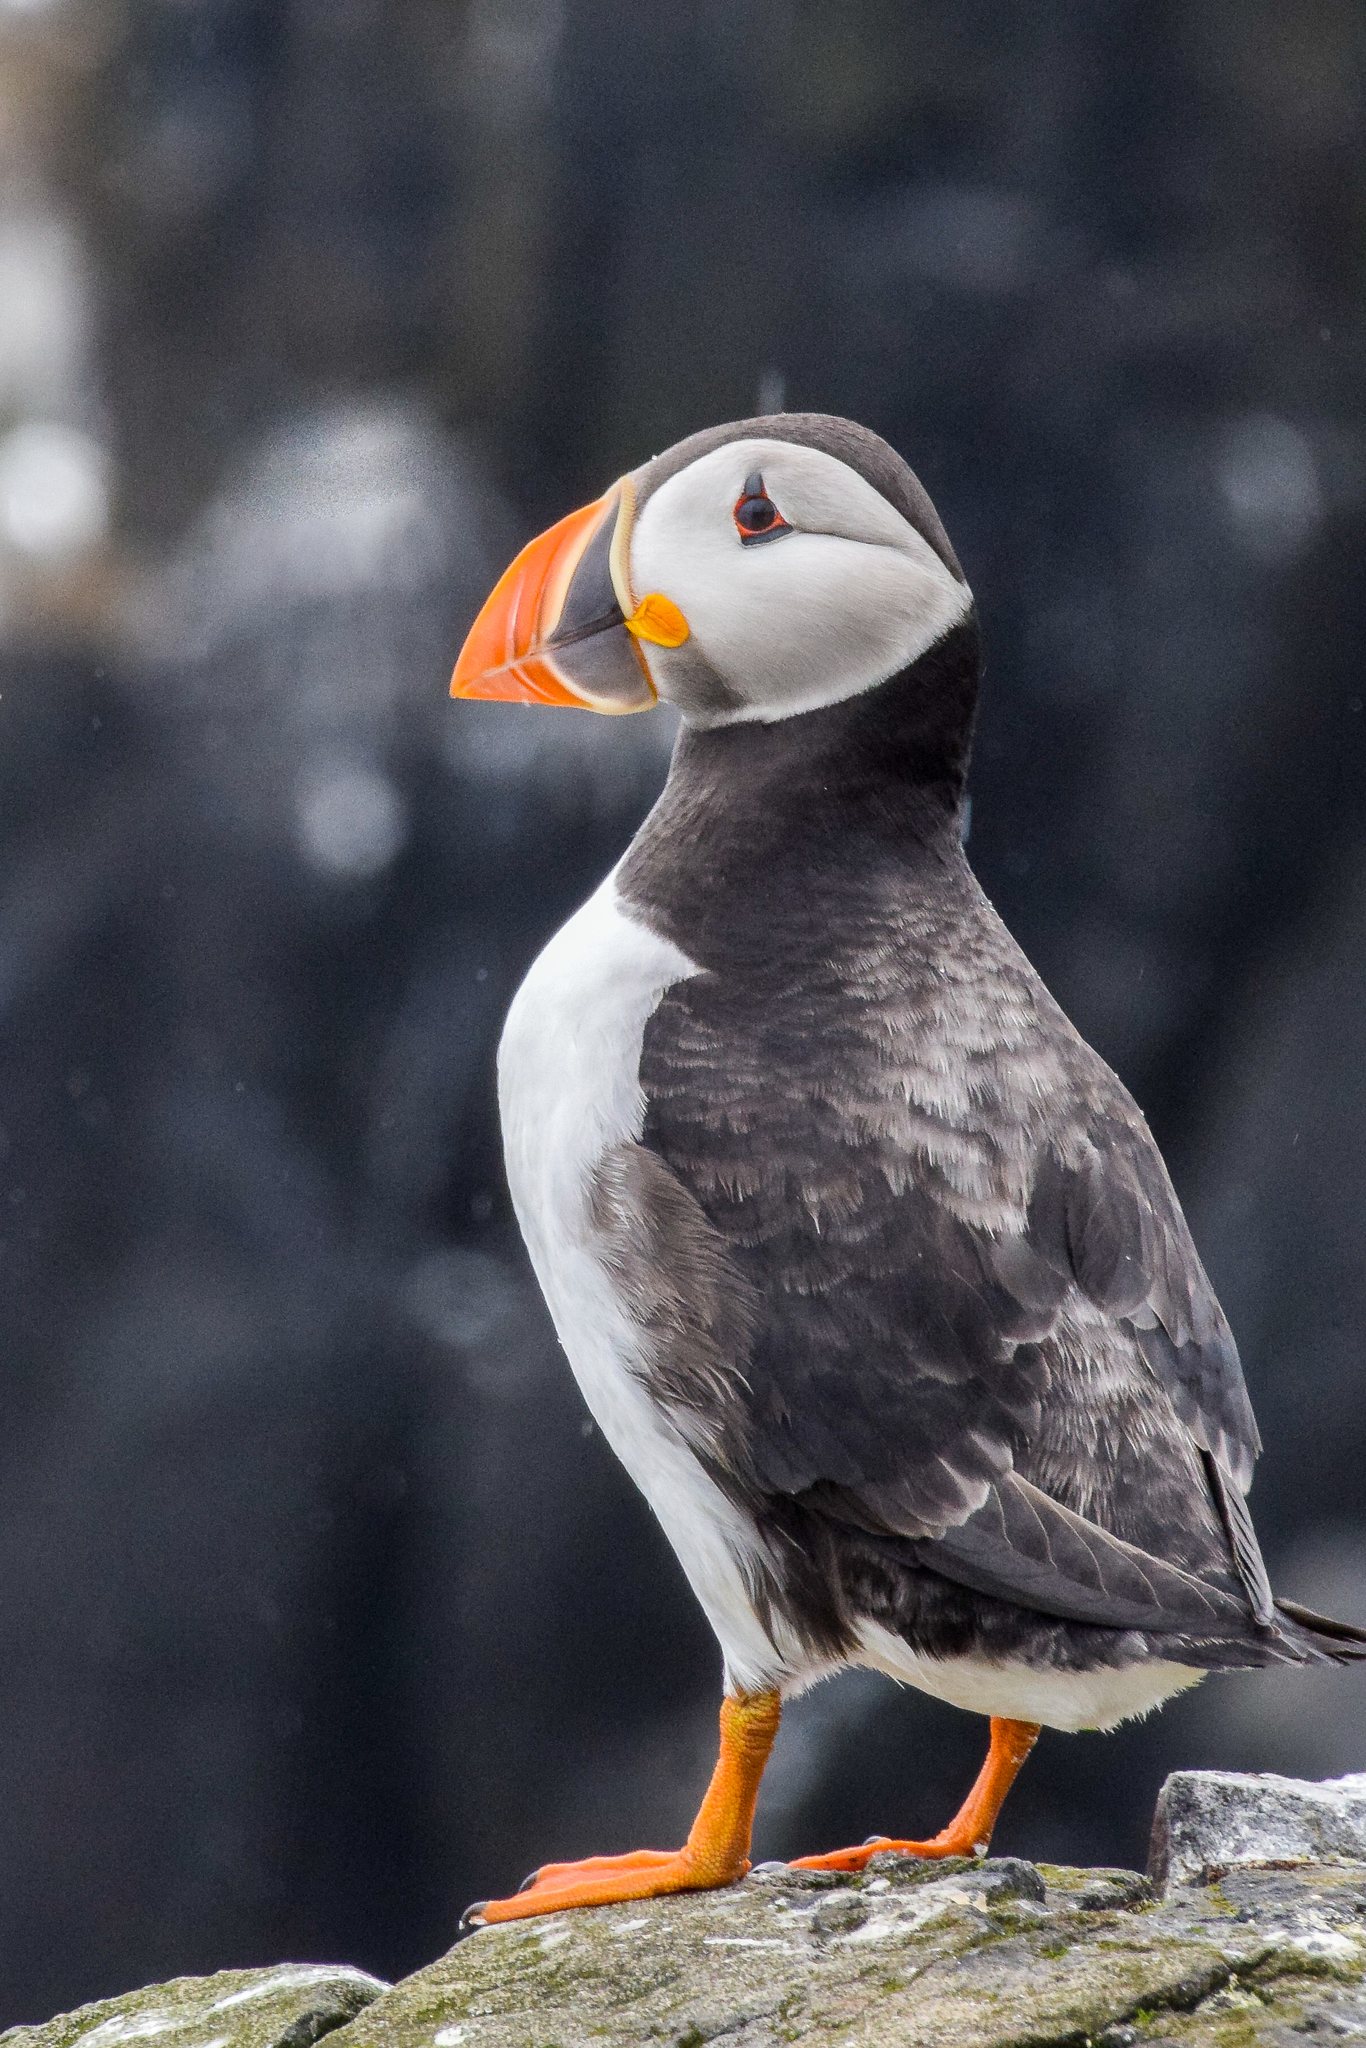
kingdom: Animalia
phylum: Chordata
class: Aves
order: Charadriiformes
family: Alcidae
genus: Fratercula
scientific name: Fratercula arctica
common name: Atlantic puffin
